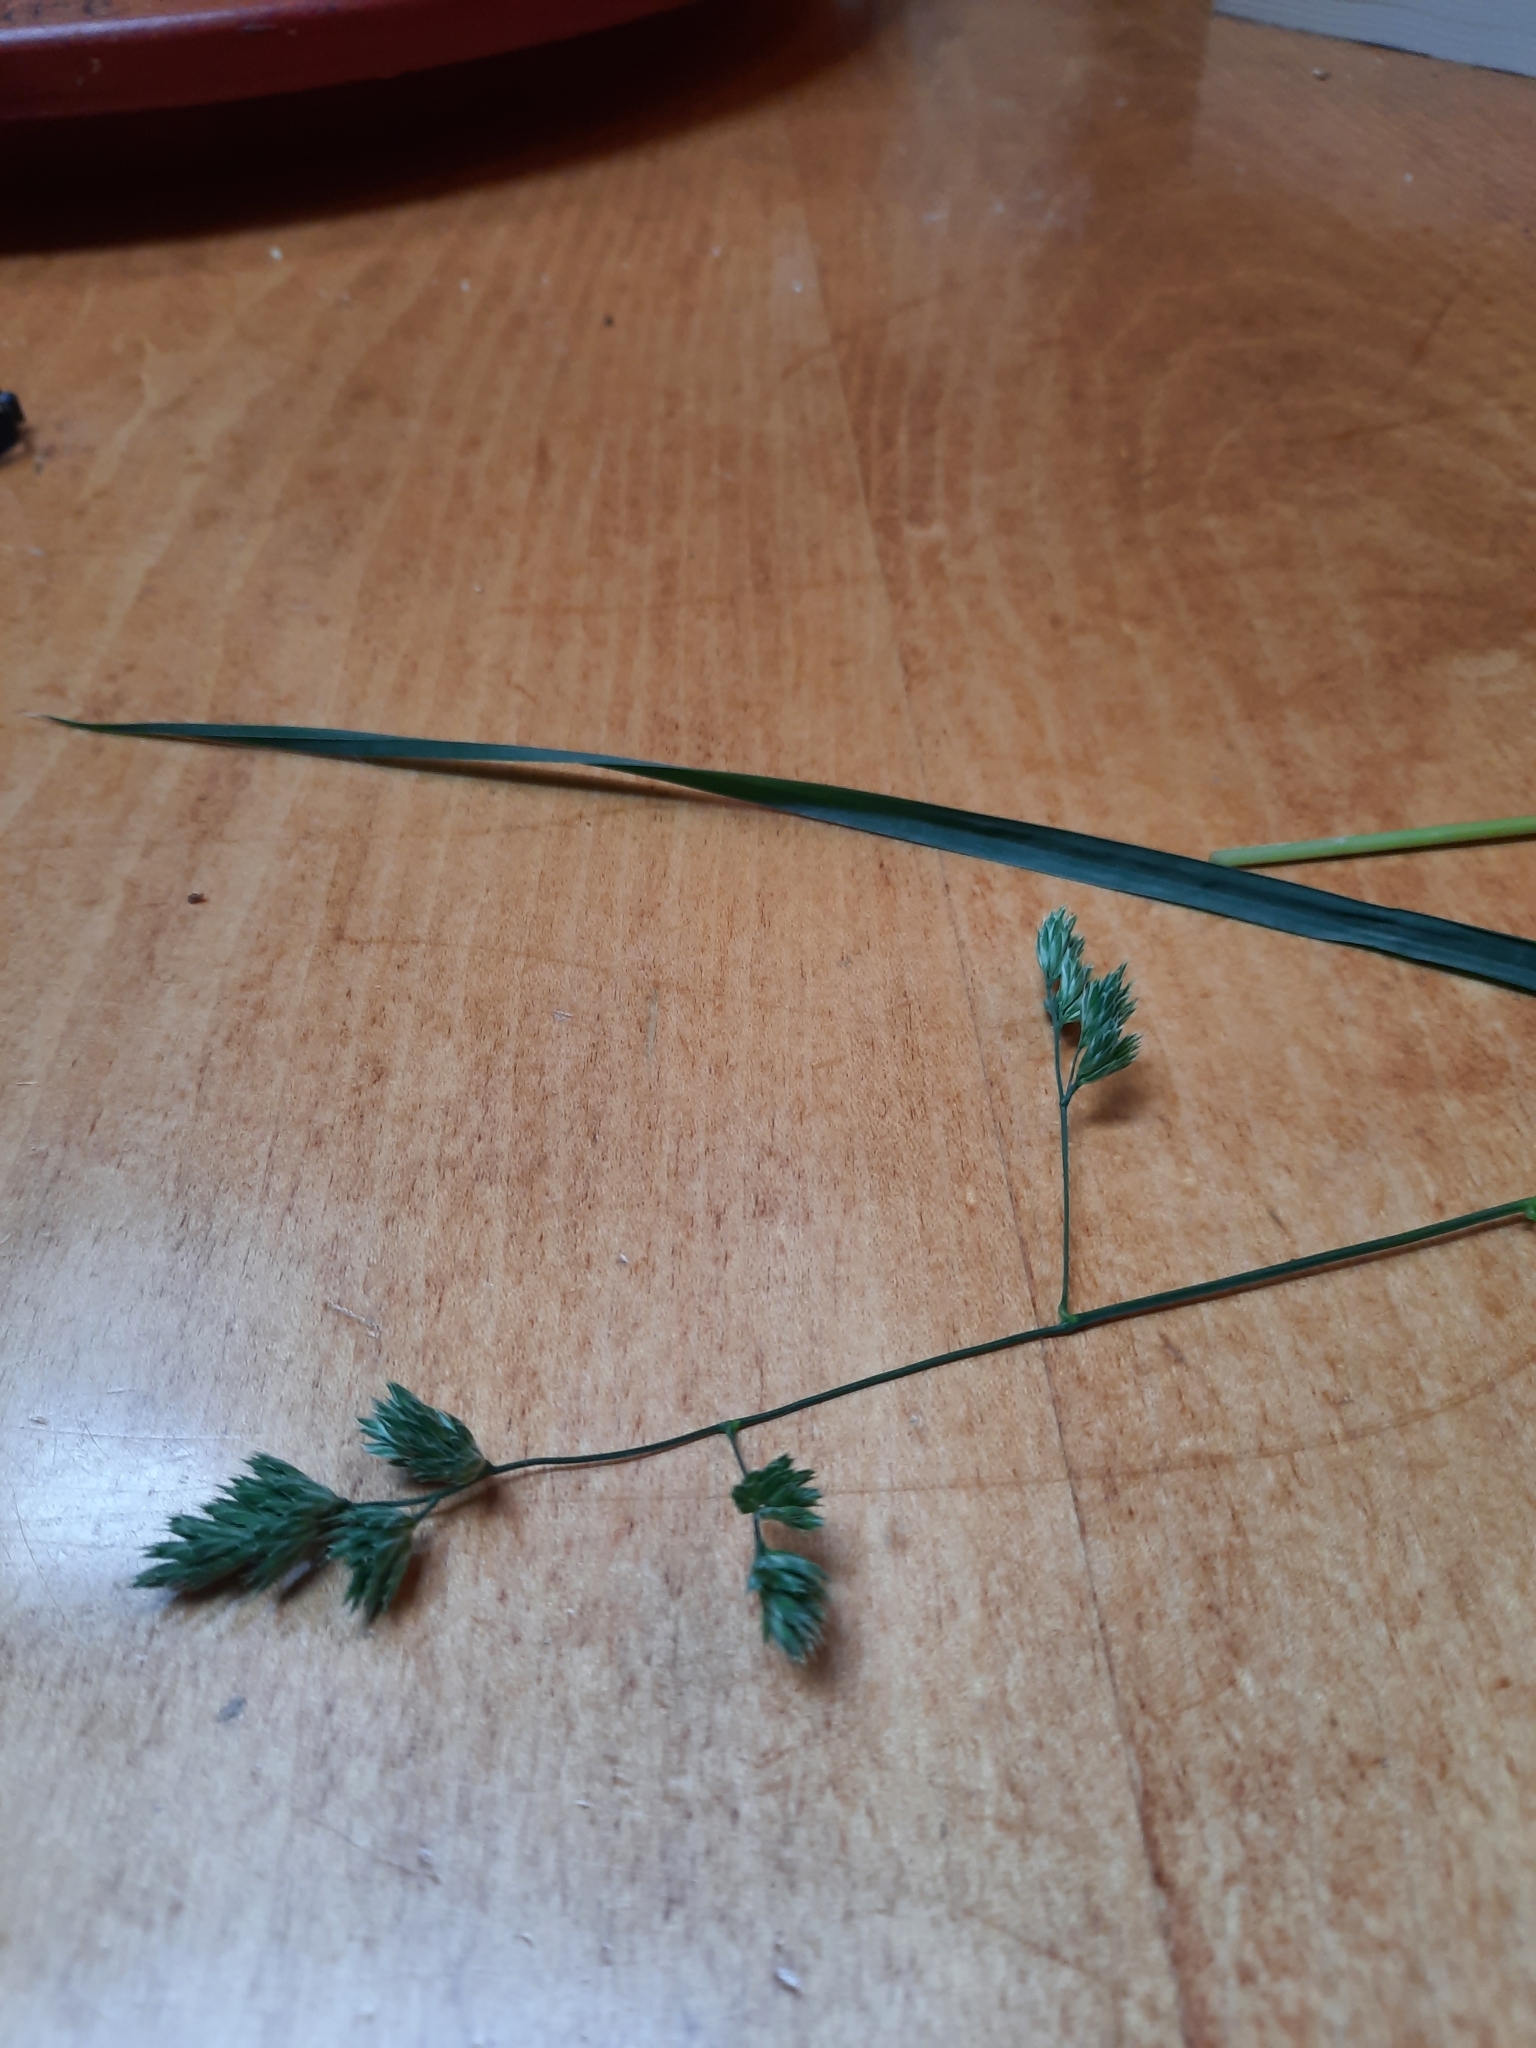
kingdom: Plantae
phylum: Tracheophyta
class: Liliopsida
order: Poales
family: Poaceae
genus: Dactylis
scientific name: Dactylis glomerata
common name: Orchardgrass
